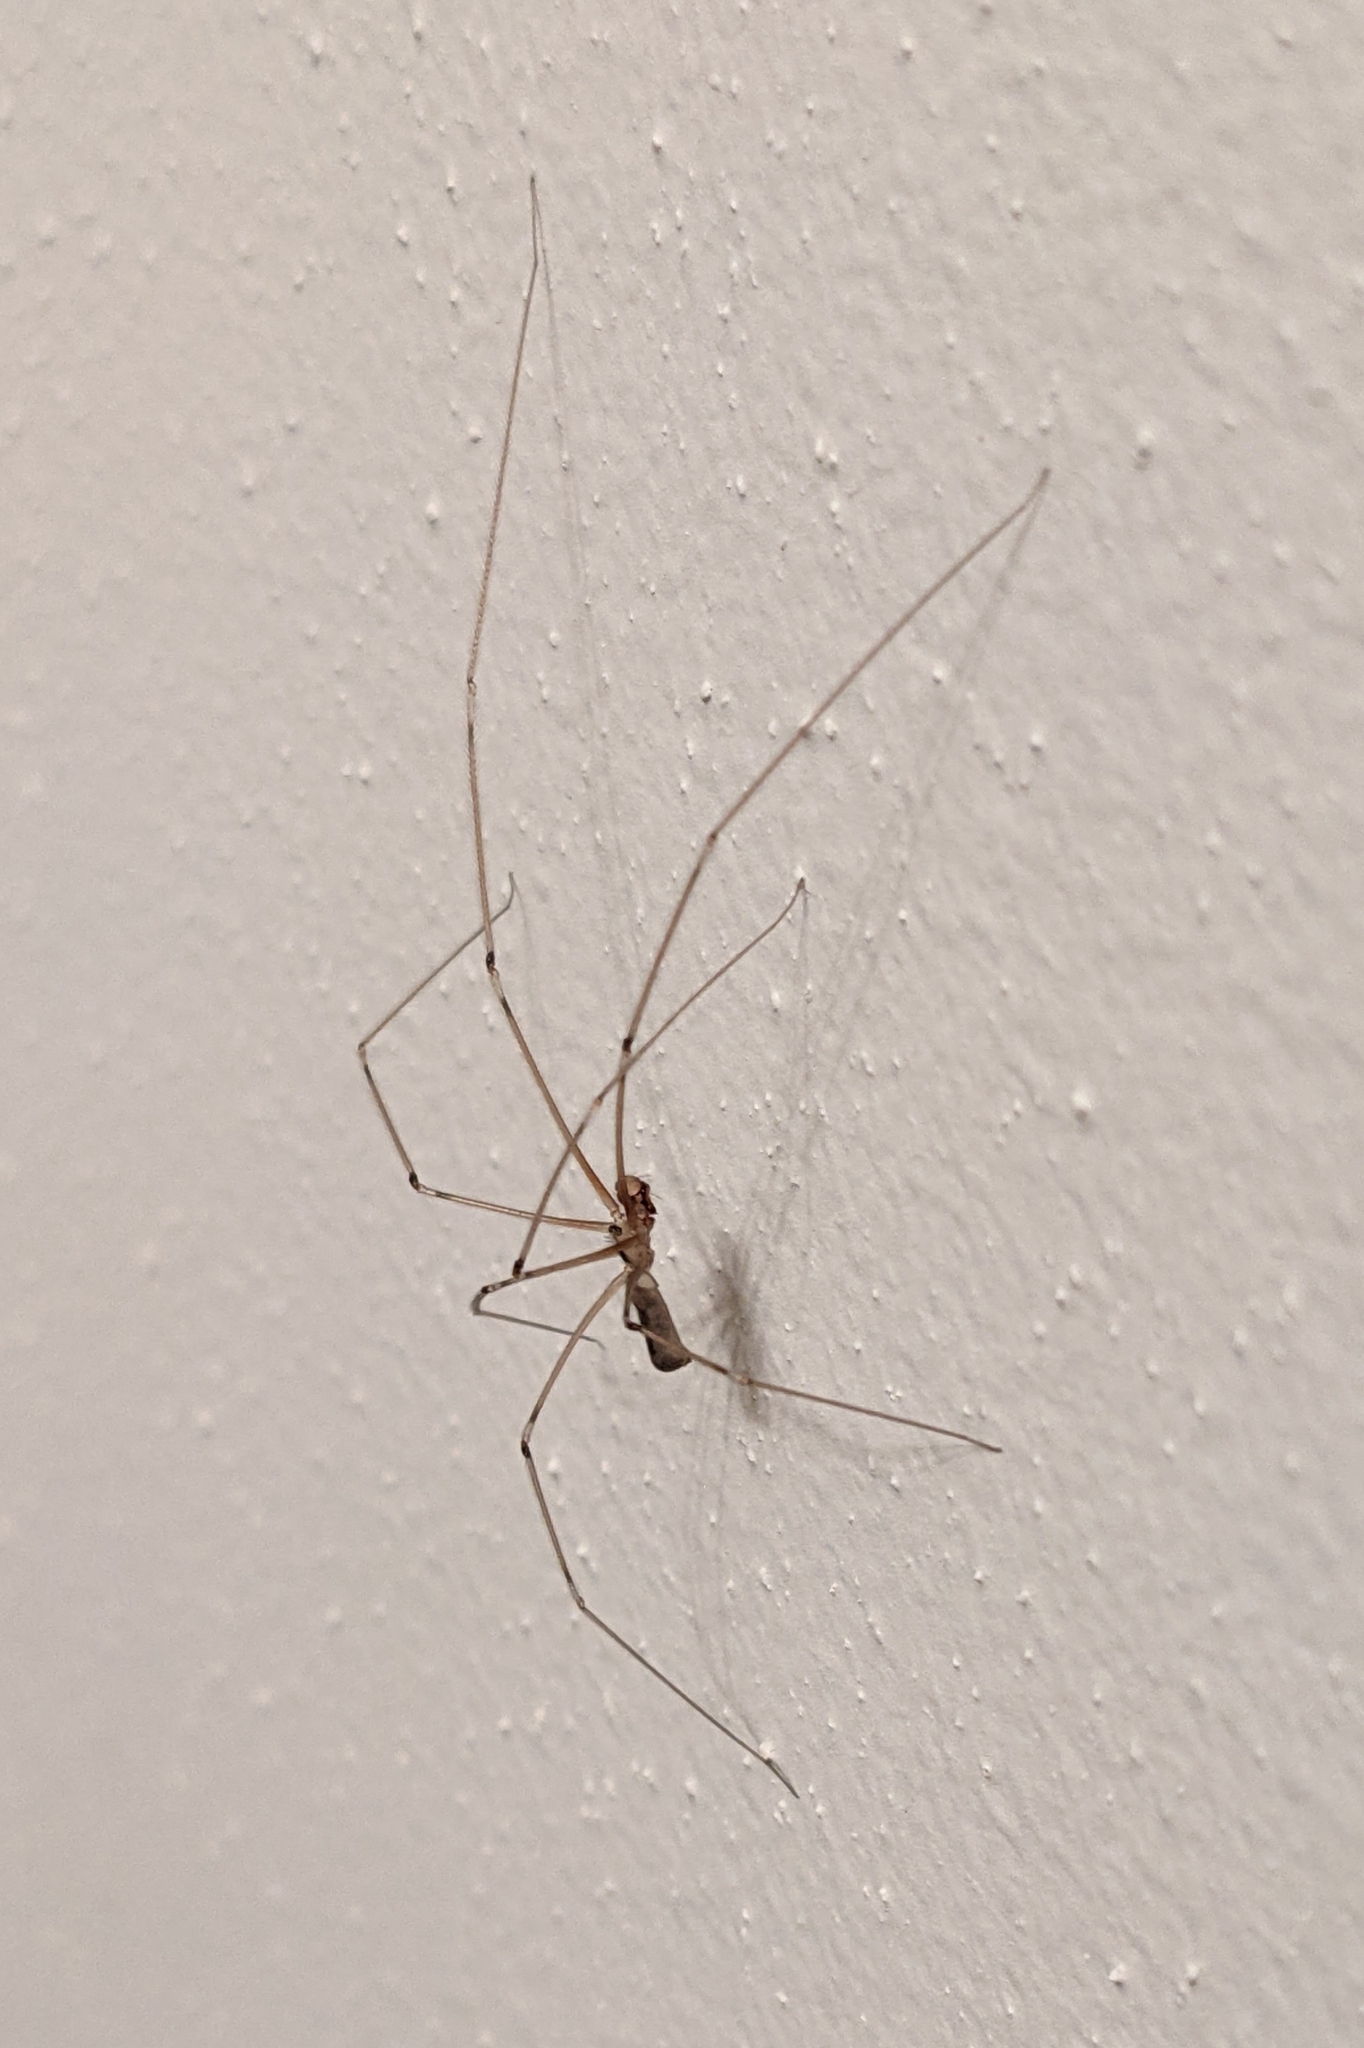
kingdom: Animalia
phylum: Arthropoda
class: Arachnida
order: Araneae
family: Pholcidae
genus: Pholcus
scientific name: Pholcus phalangioides
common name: Longbodied cellar spider
